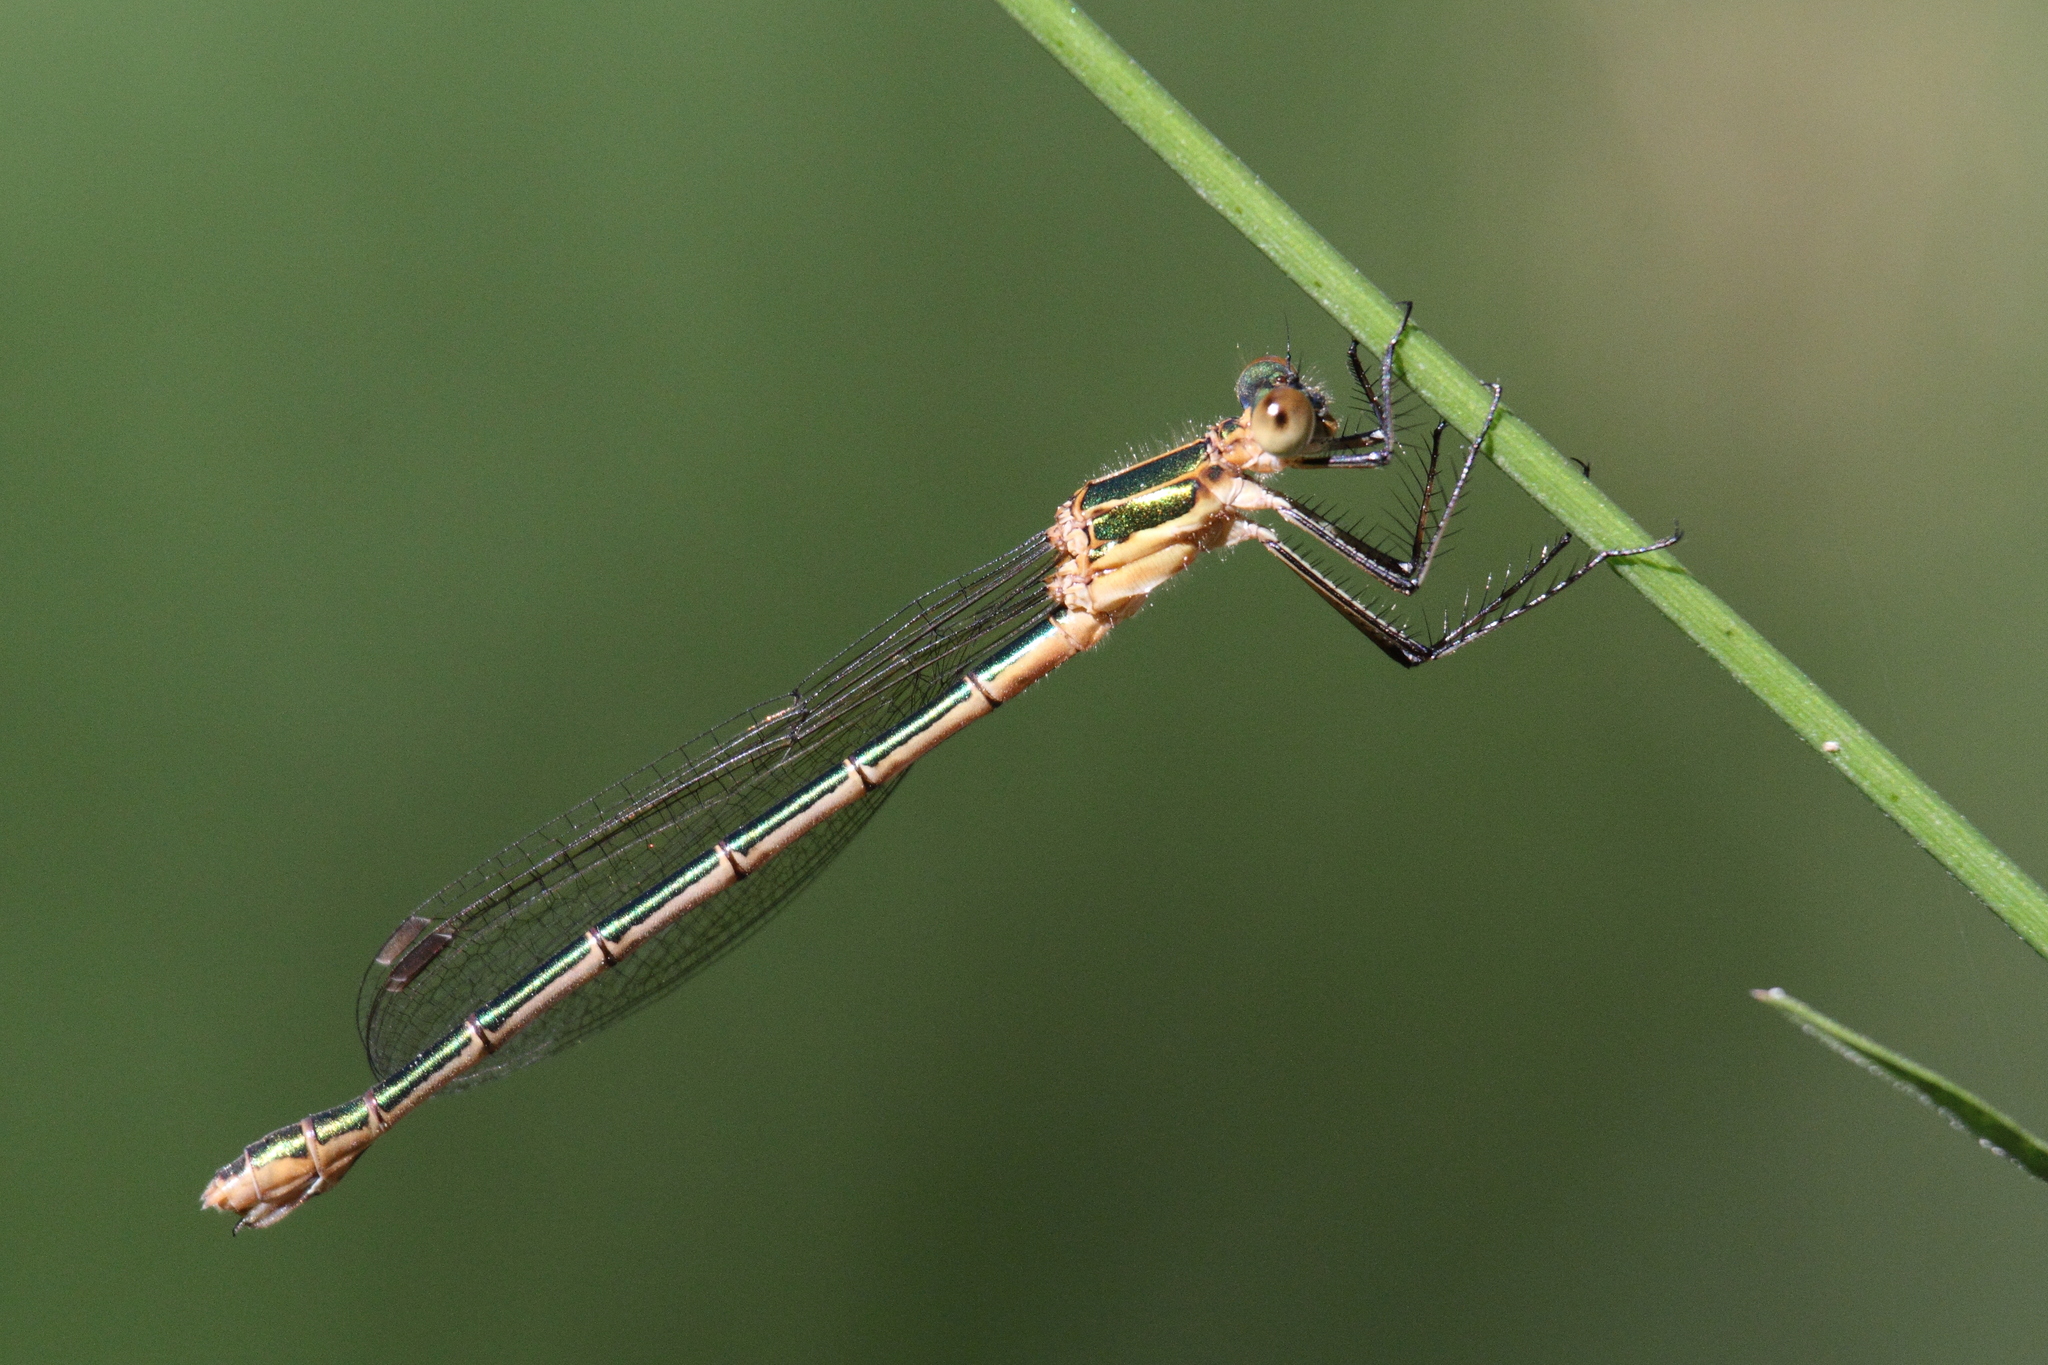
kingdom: Animalia
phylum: Arthropoda
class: Insecta
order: Odonata
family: Lestidae
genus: Lestes
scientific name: Lestes sponsa
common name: Common spreadwing
